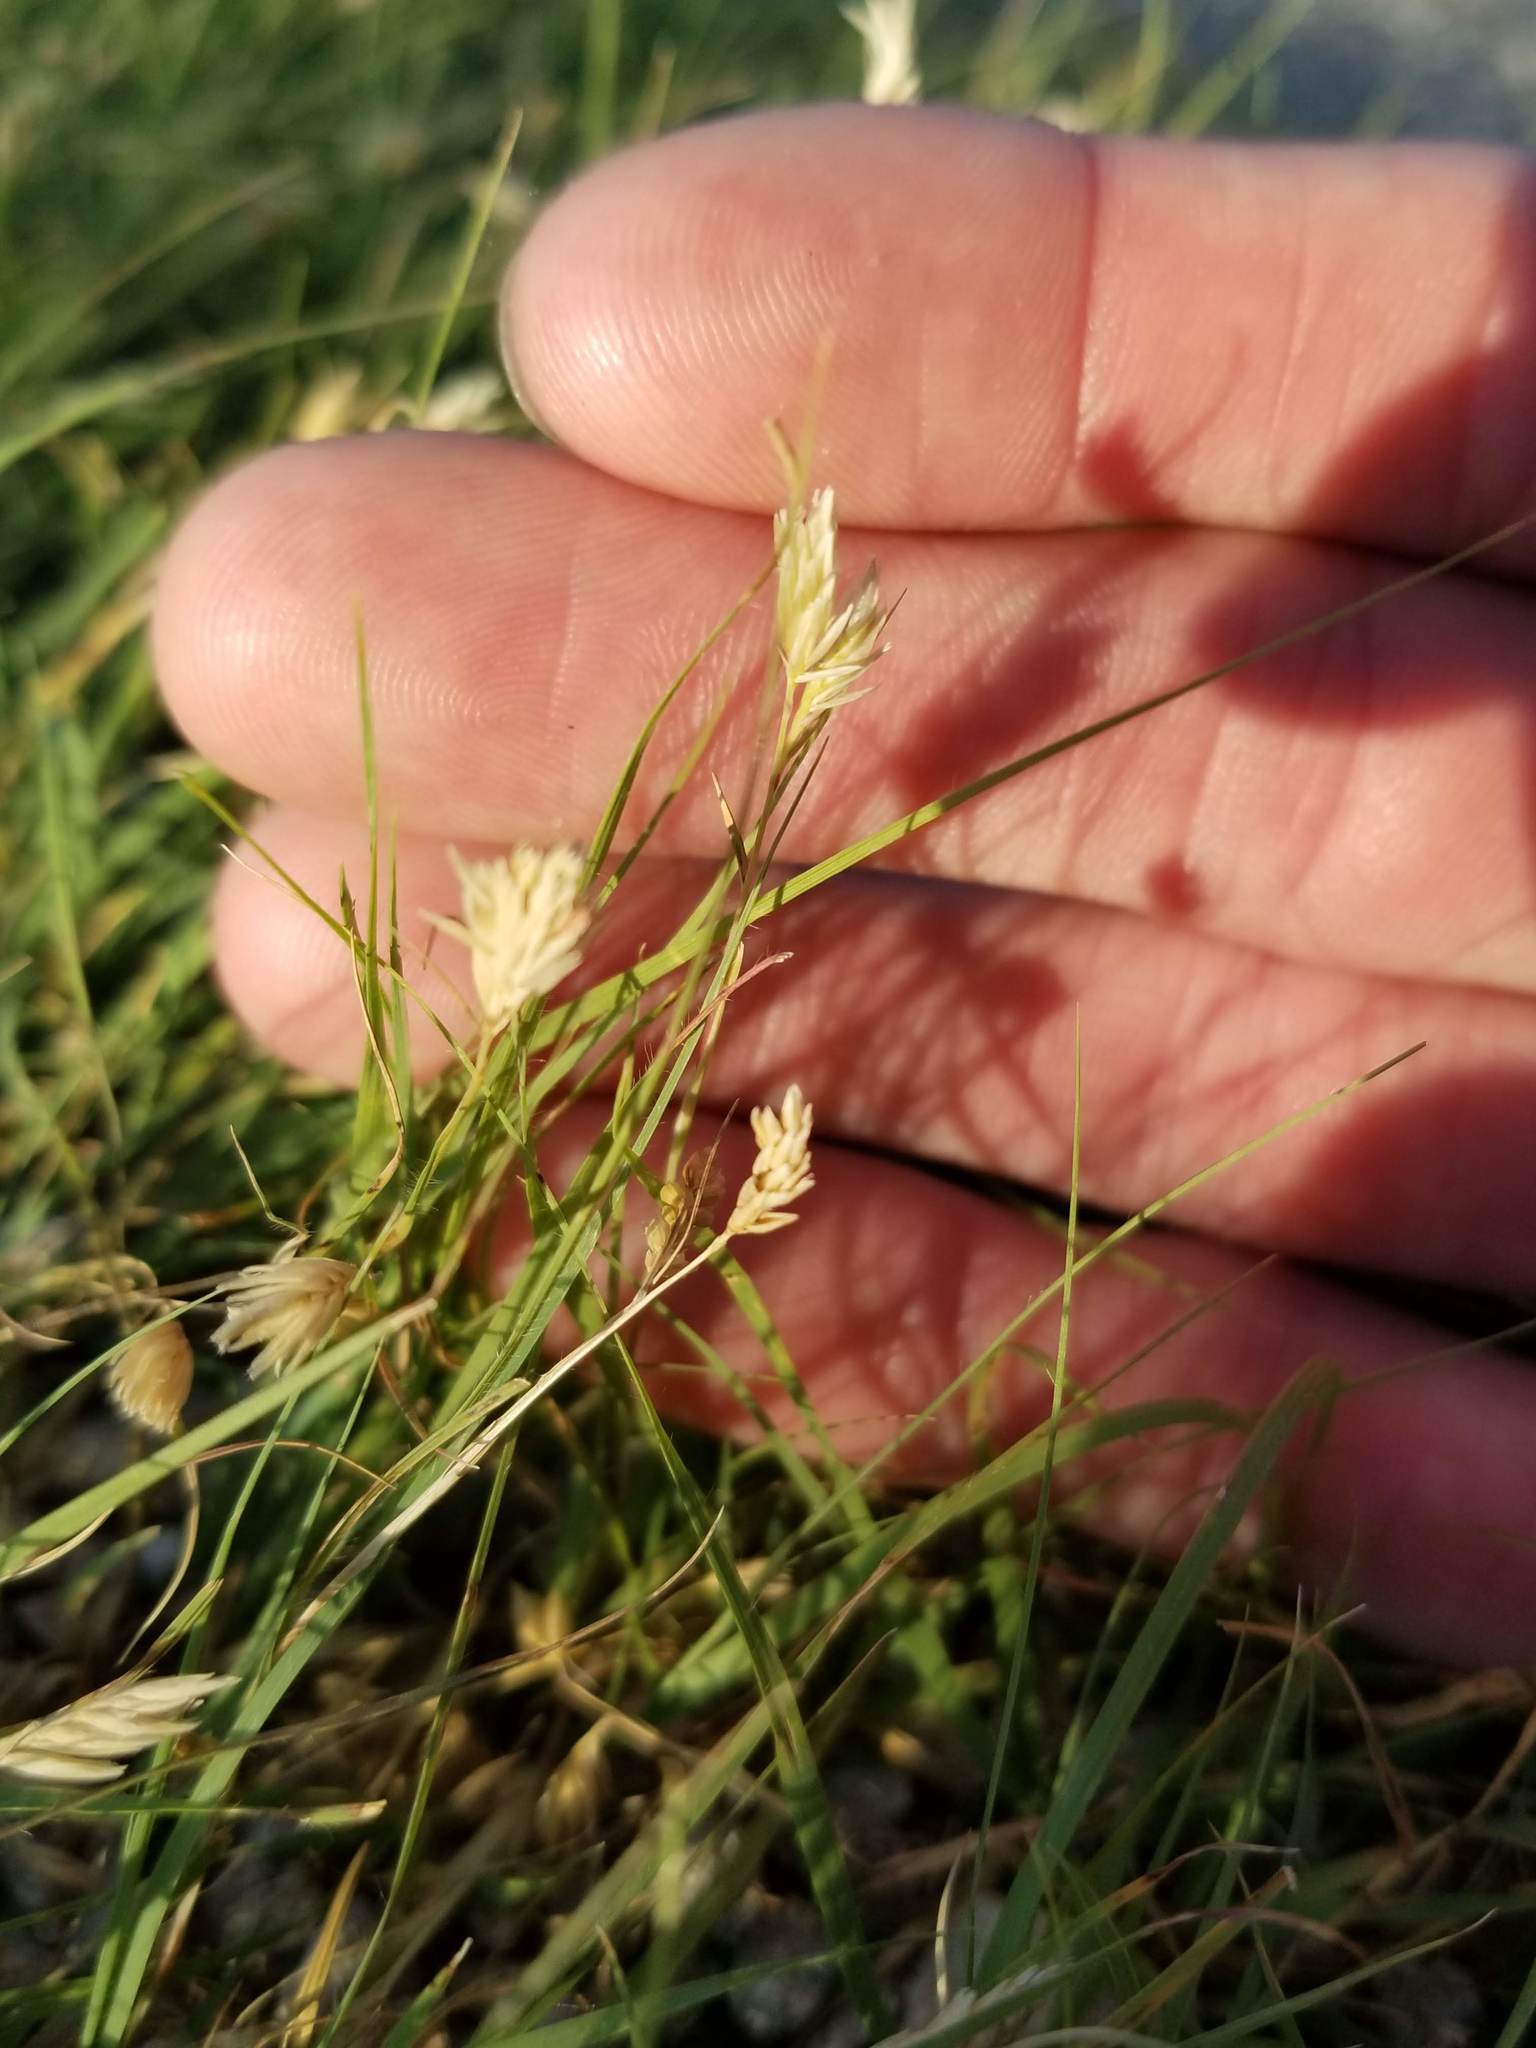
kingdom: Plantae
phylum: Tracheophyta
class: Liliopsida
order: Poales
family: Poaceae
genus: Bouteloua
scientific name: Bouteloua dactyloides
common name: Buffalo grass
